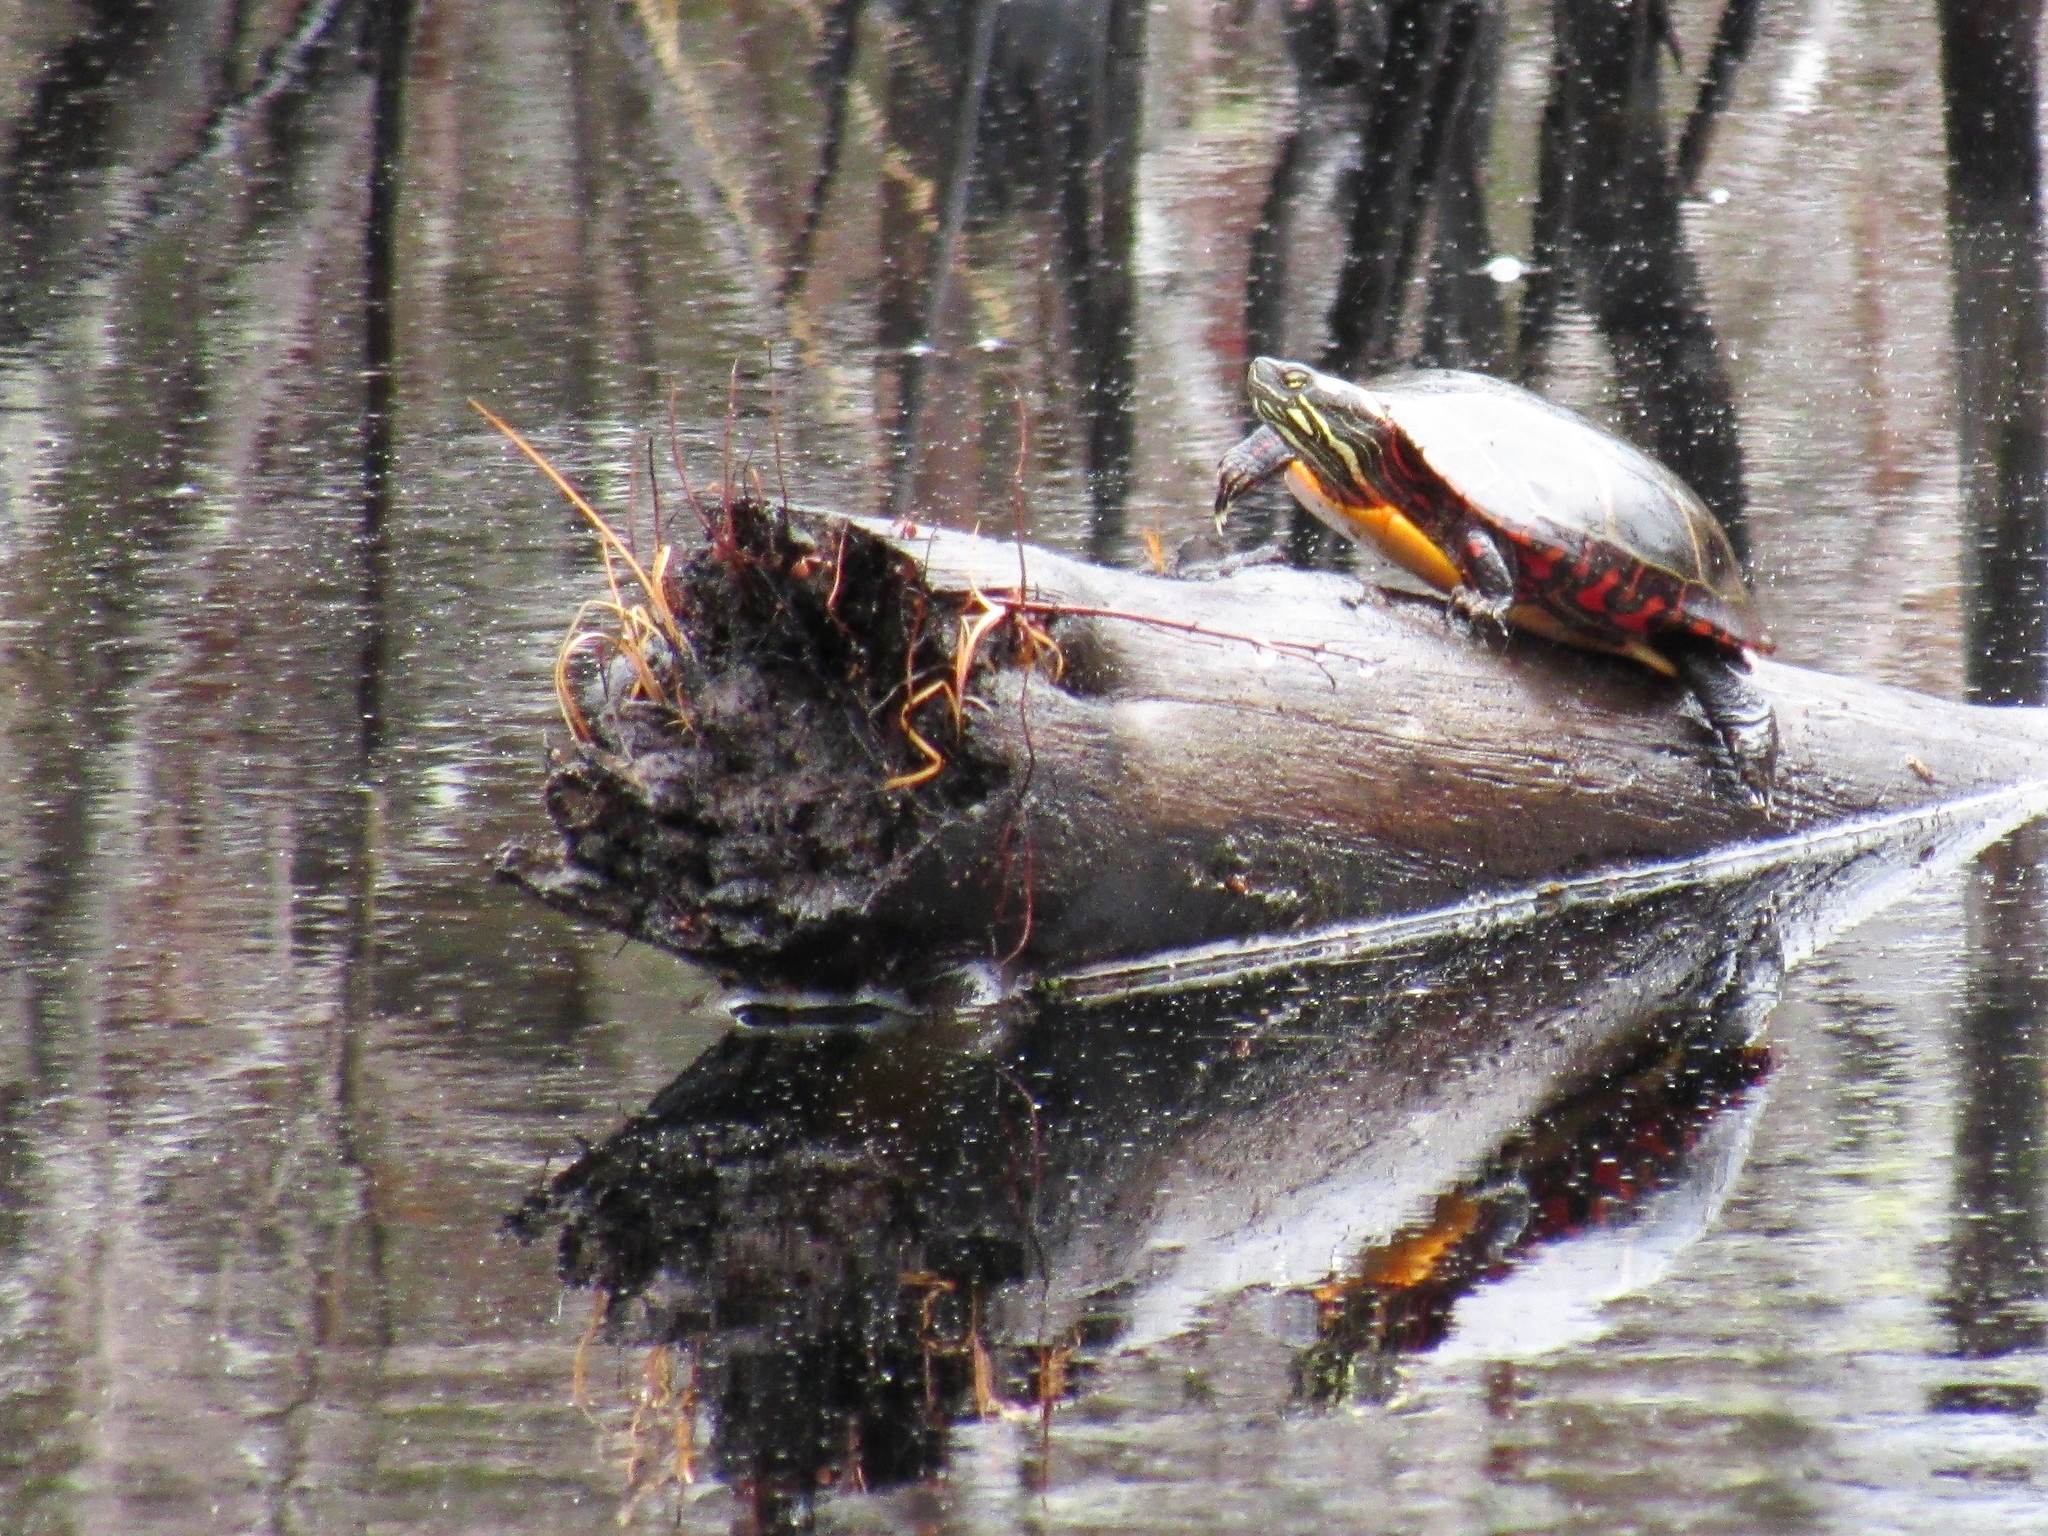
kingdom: Animalia
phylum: Chordata
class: Testudines
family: Emydidae
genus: Chrysemys
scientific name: Chrysemys picta
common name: Painted turtle
